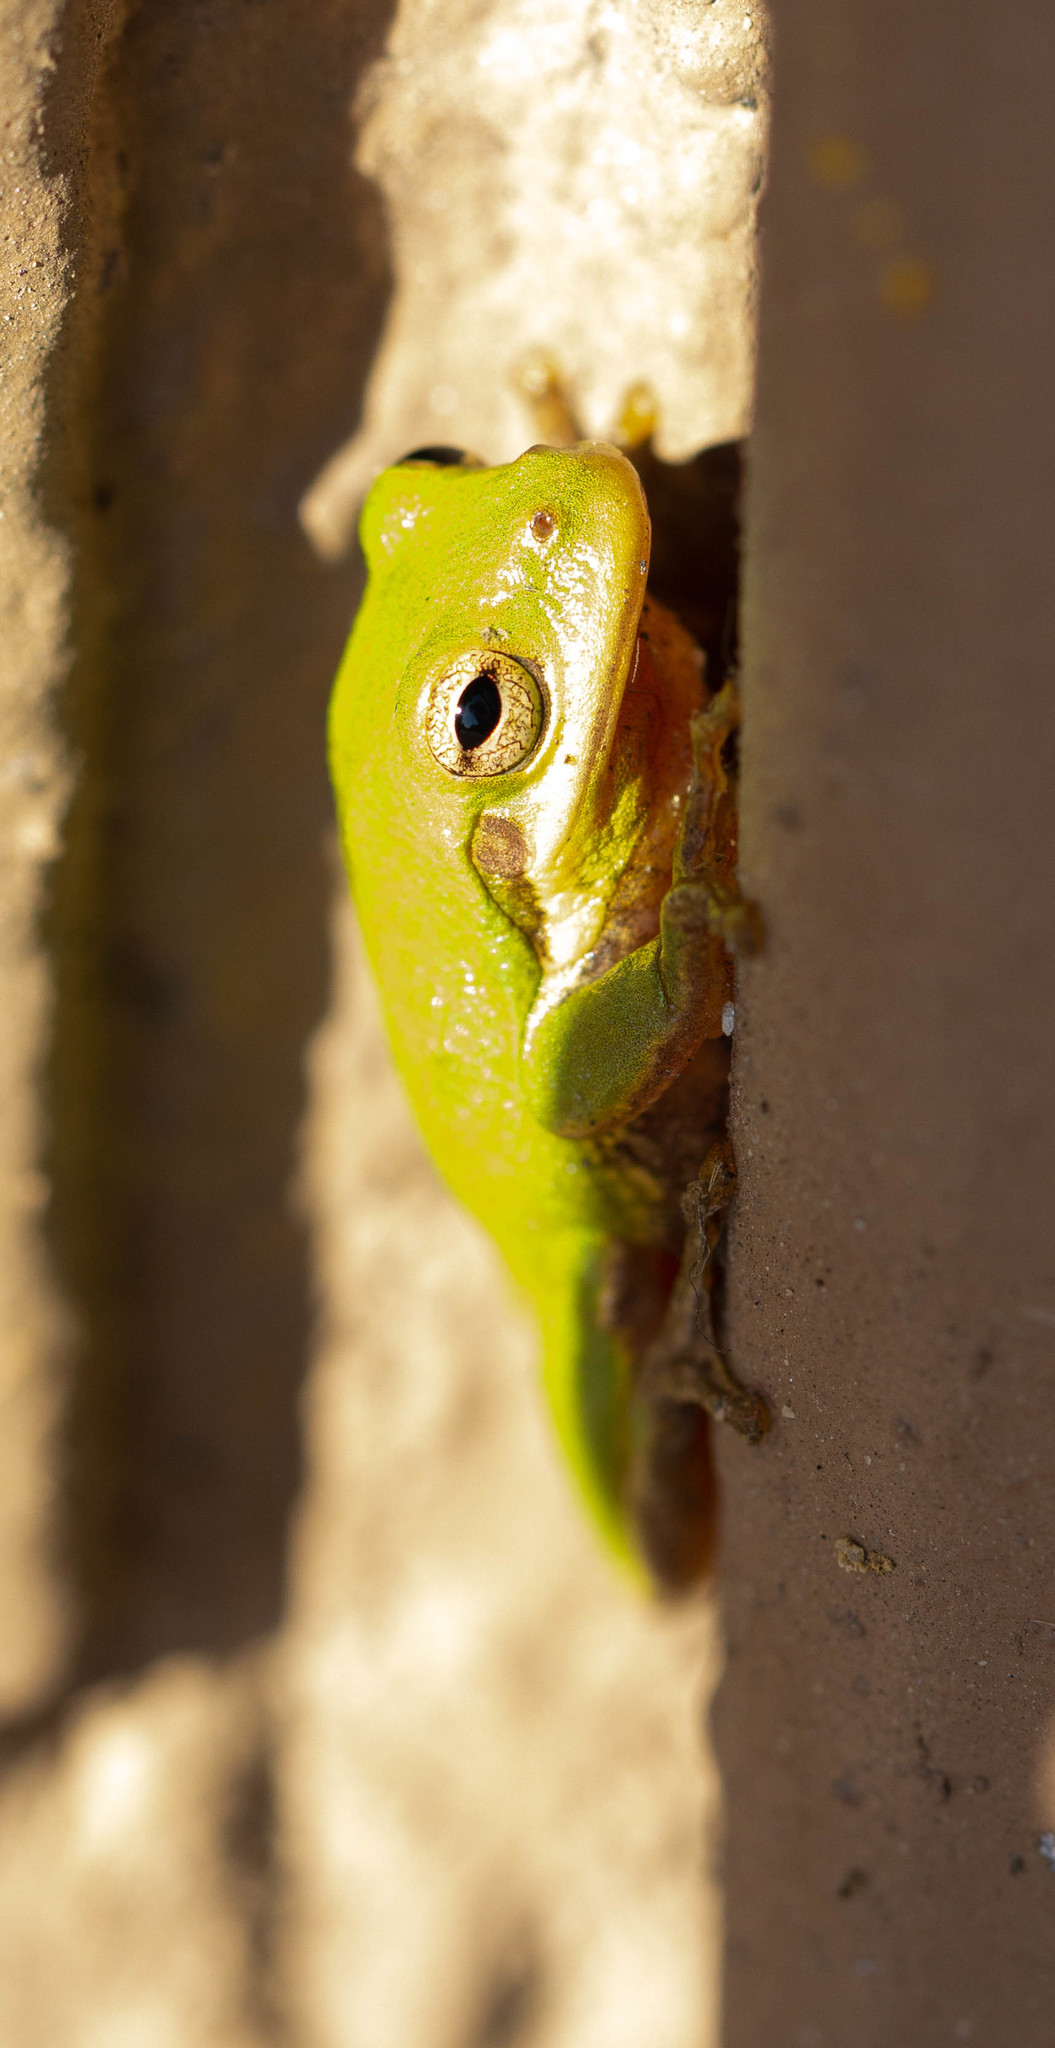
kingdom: Animalia
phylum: Chordata
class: Amphibia
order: Anura
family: Hylidae
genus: Dryophytes
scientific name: Dryophytes squirellus
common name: Squirrel treefrog
